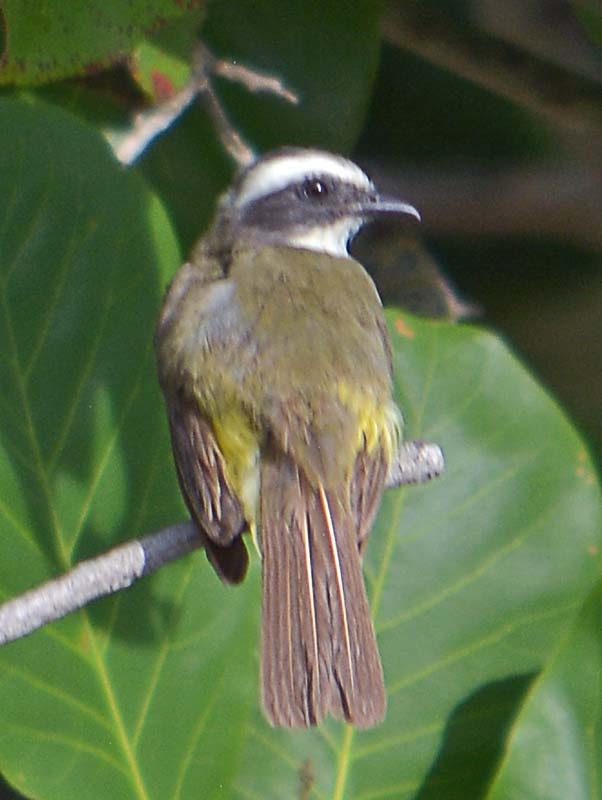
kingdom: Animalia
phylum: Chordata
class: Aves
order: Passeriformes
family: Tyrannidae
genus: Myiozetetes
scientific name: Myiozetetes similis
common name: Social flycatcher
